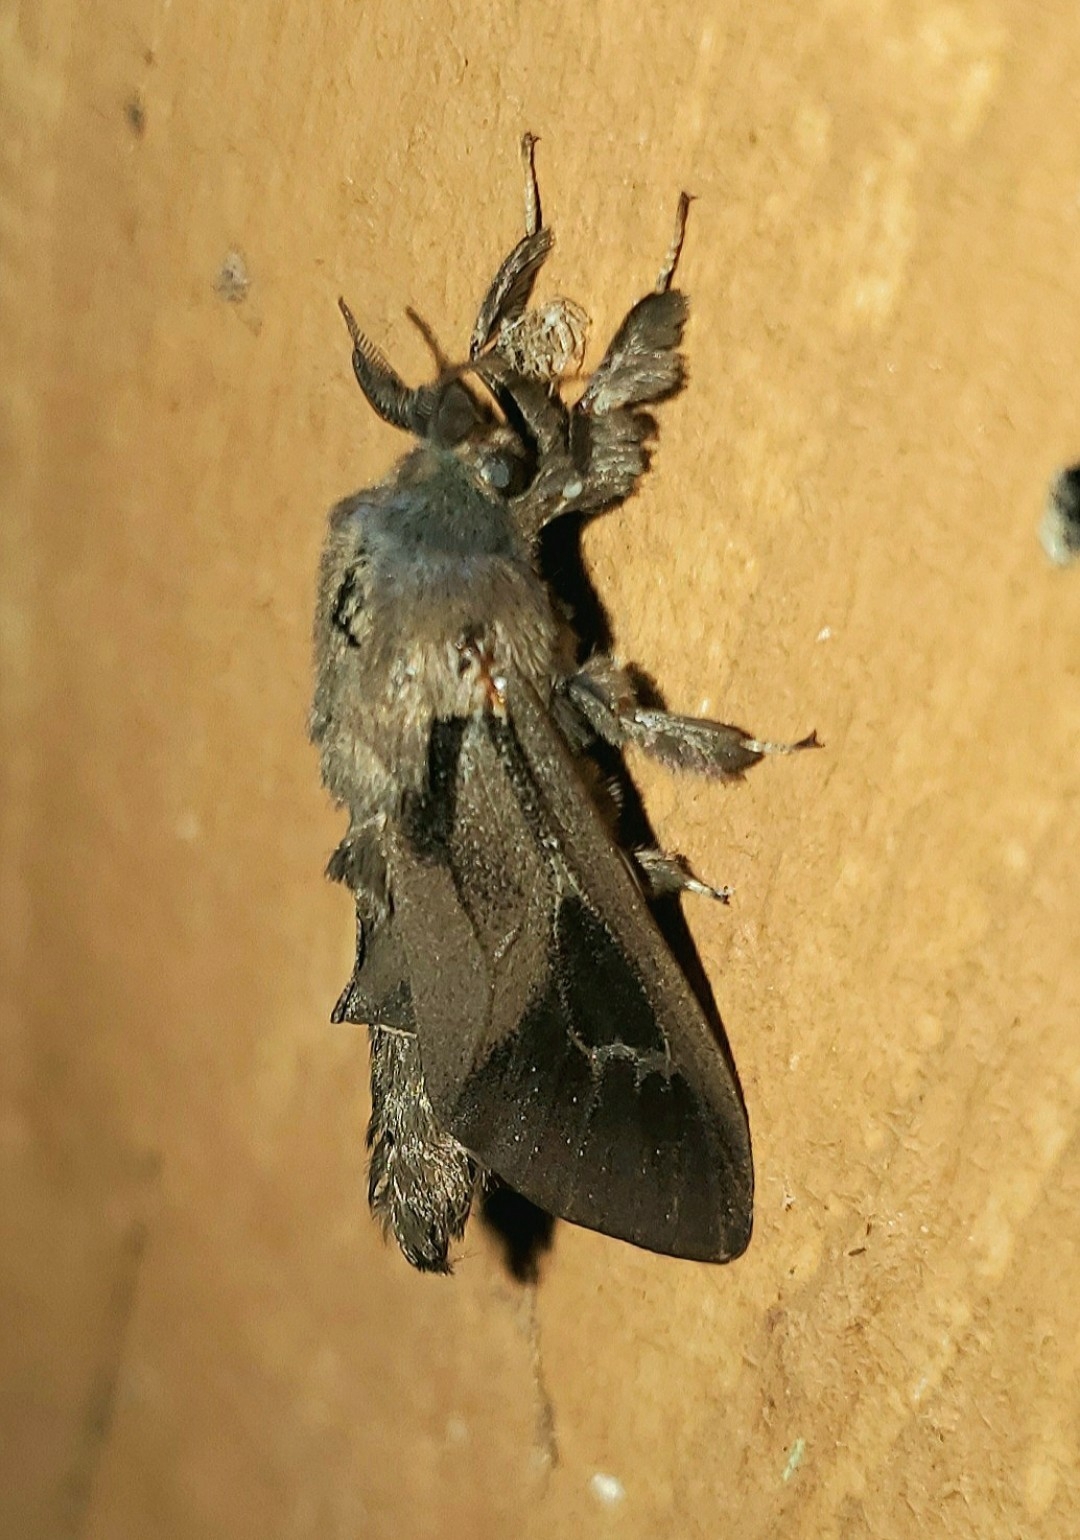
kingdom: Animalia
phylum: Arthropoda
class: Insecta
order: Lepidoptera
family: Psychidae
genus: Oiketicus
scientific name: Oiketicus
